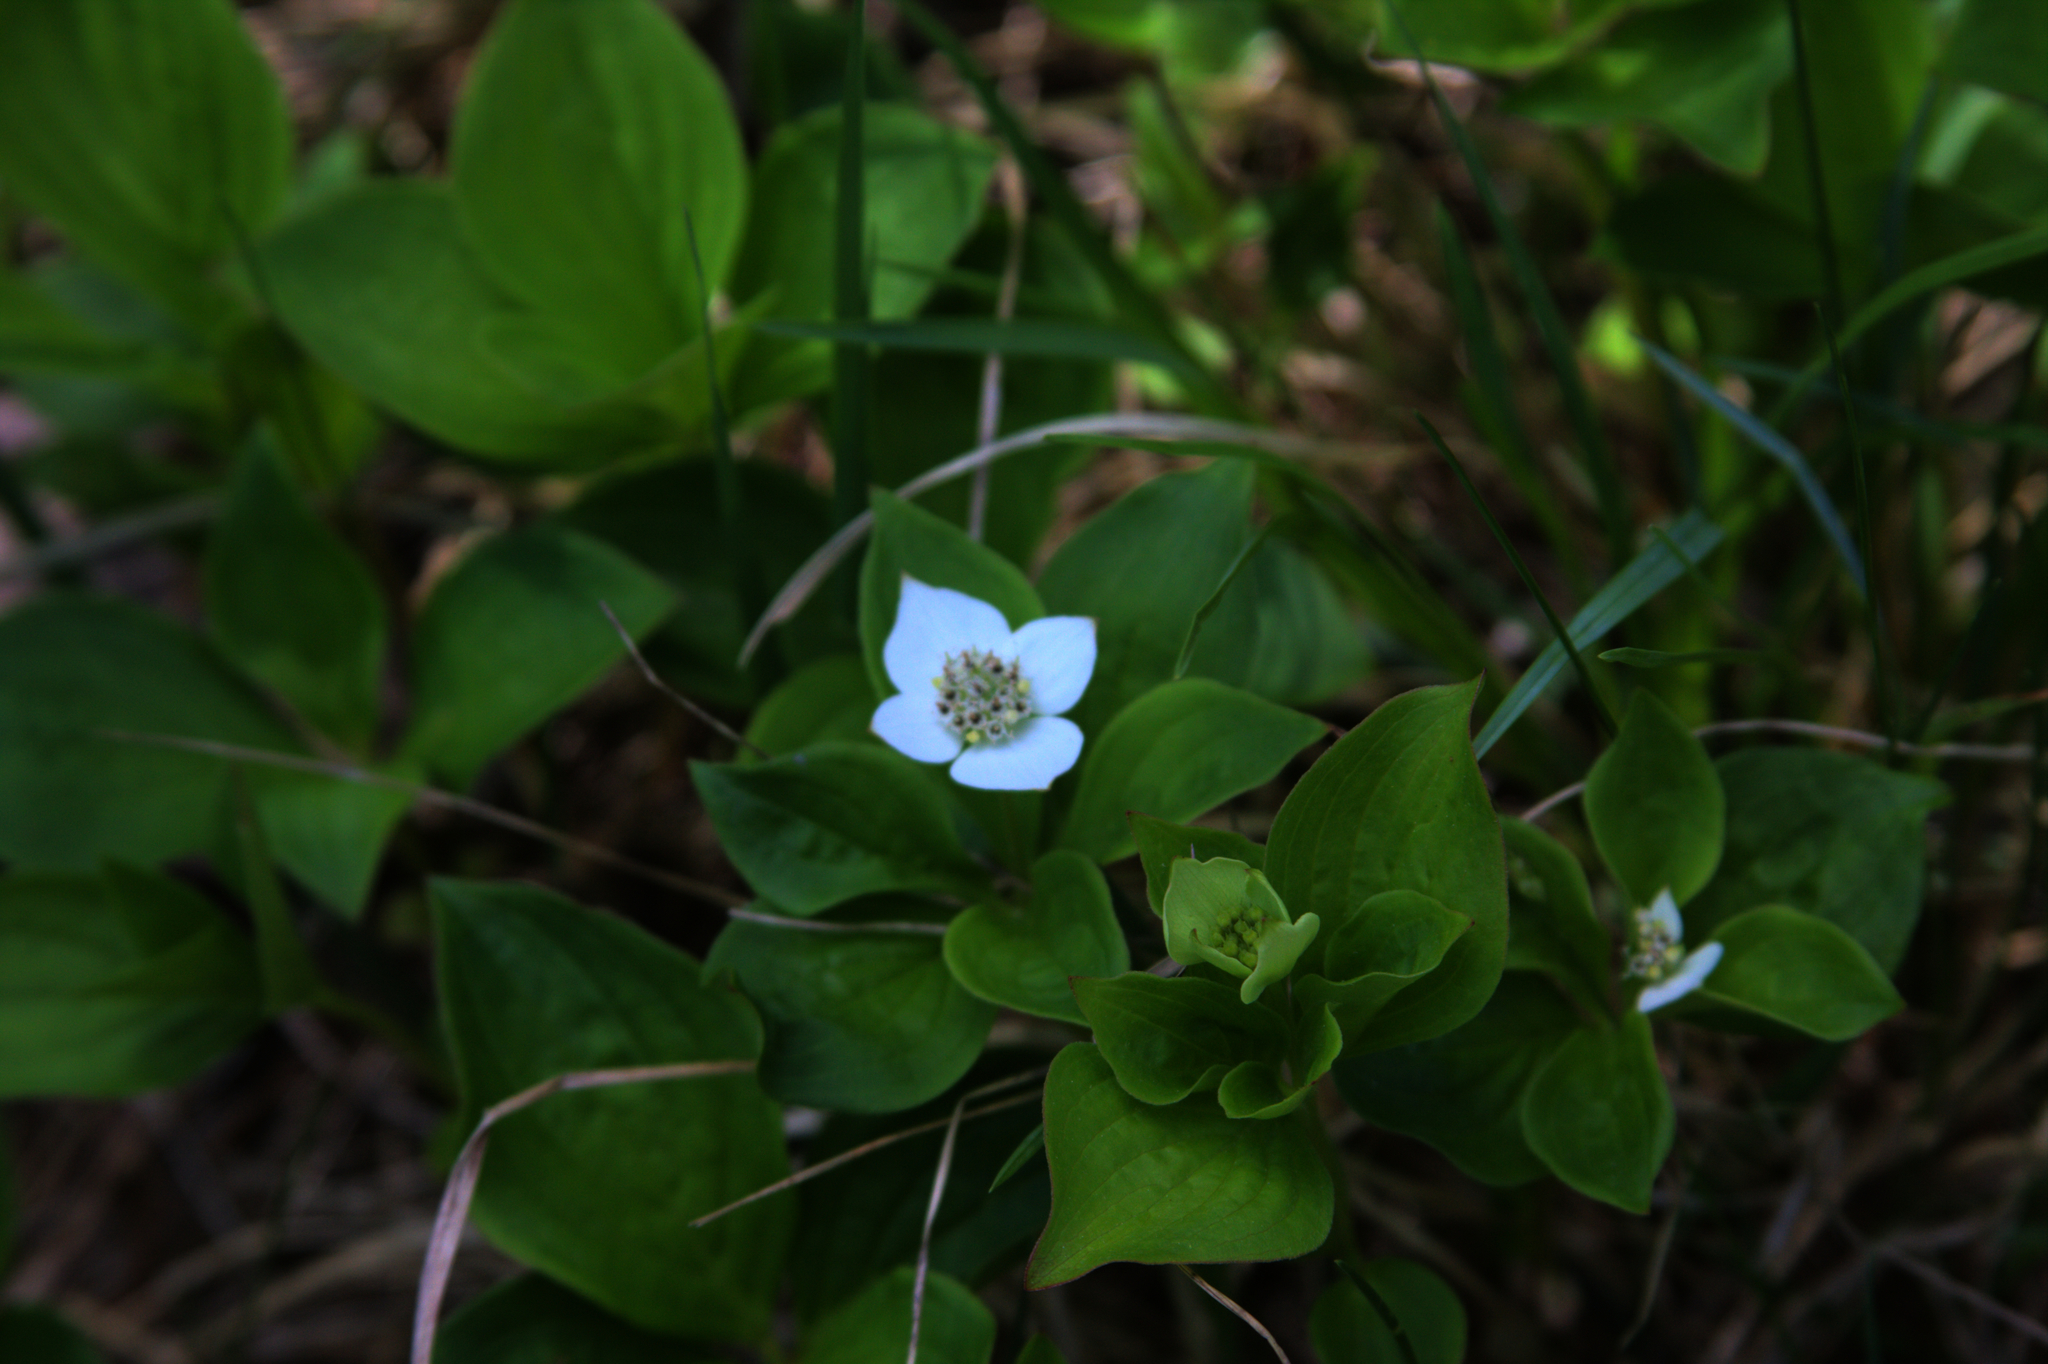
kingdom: Plantae
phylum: Tracheophyta
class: Magnoliopsida
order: Cornales
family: Cornaceae
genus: Cornus
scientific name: Cornus canadensis
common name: Creeping dogwood
